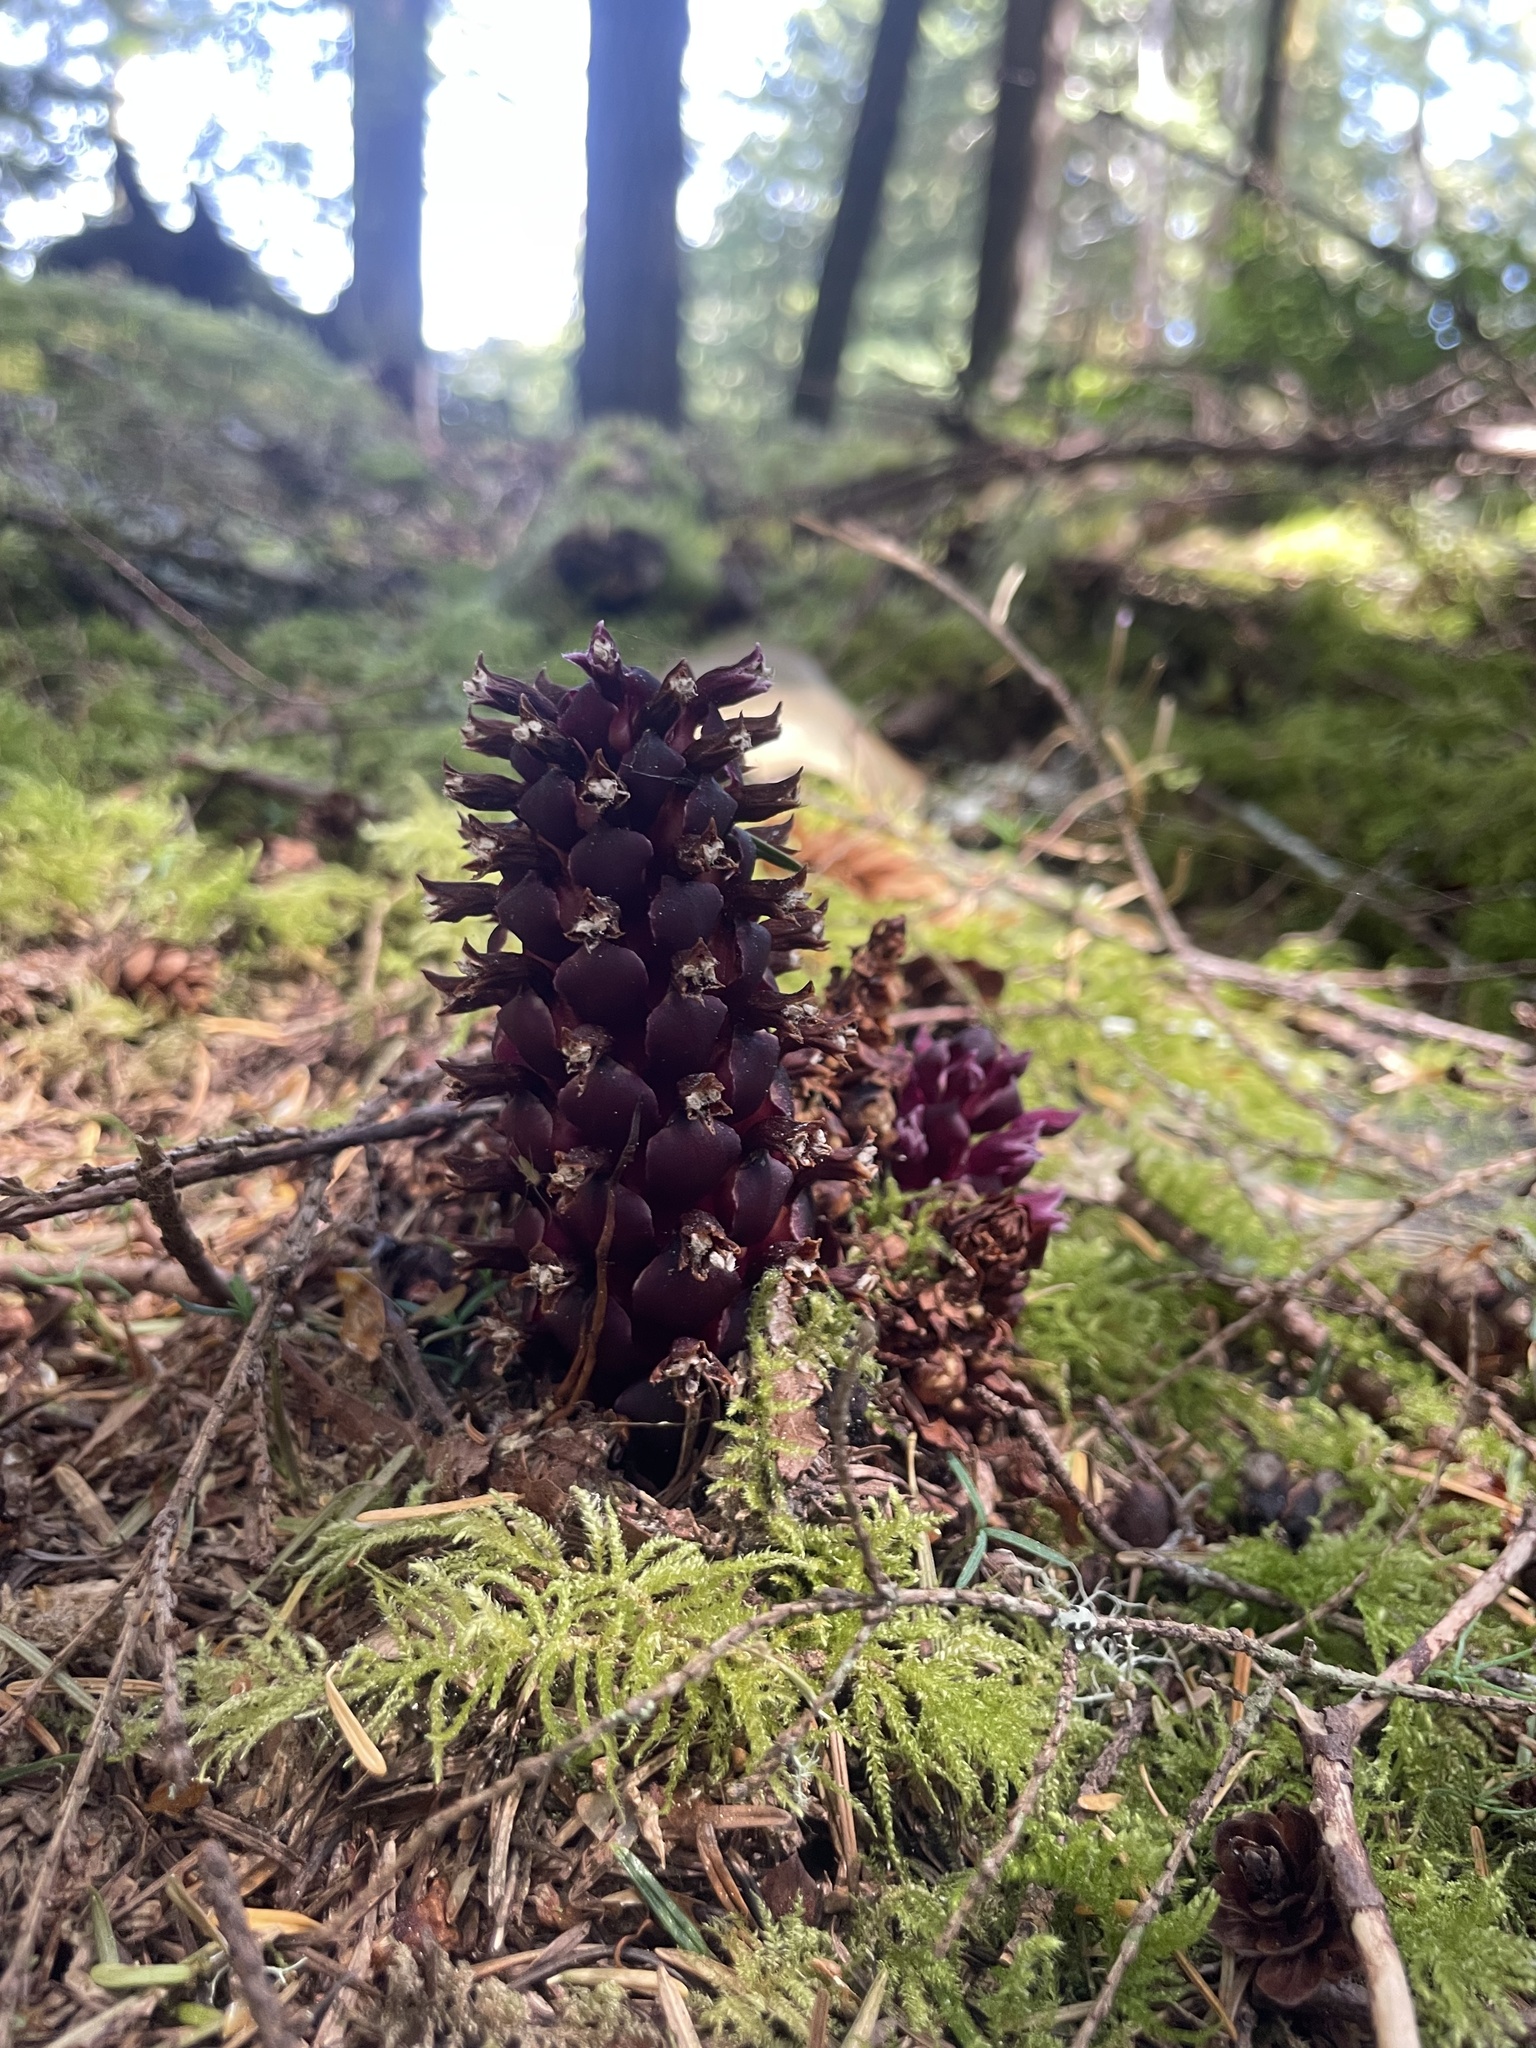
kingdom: Plantae
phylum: Tracheophyta
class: Magnoliopsida
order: Lamiales
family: Orobanchaceae
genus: Kopsiopsis
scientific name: Kopsiopsis hookeri
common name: Hooker's groundcone
